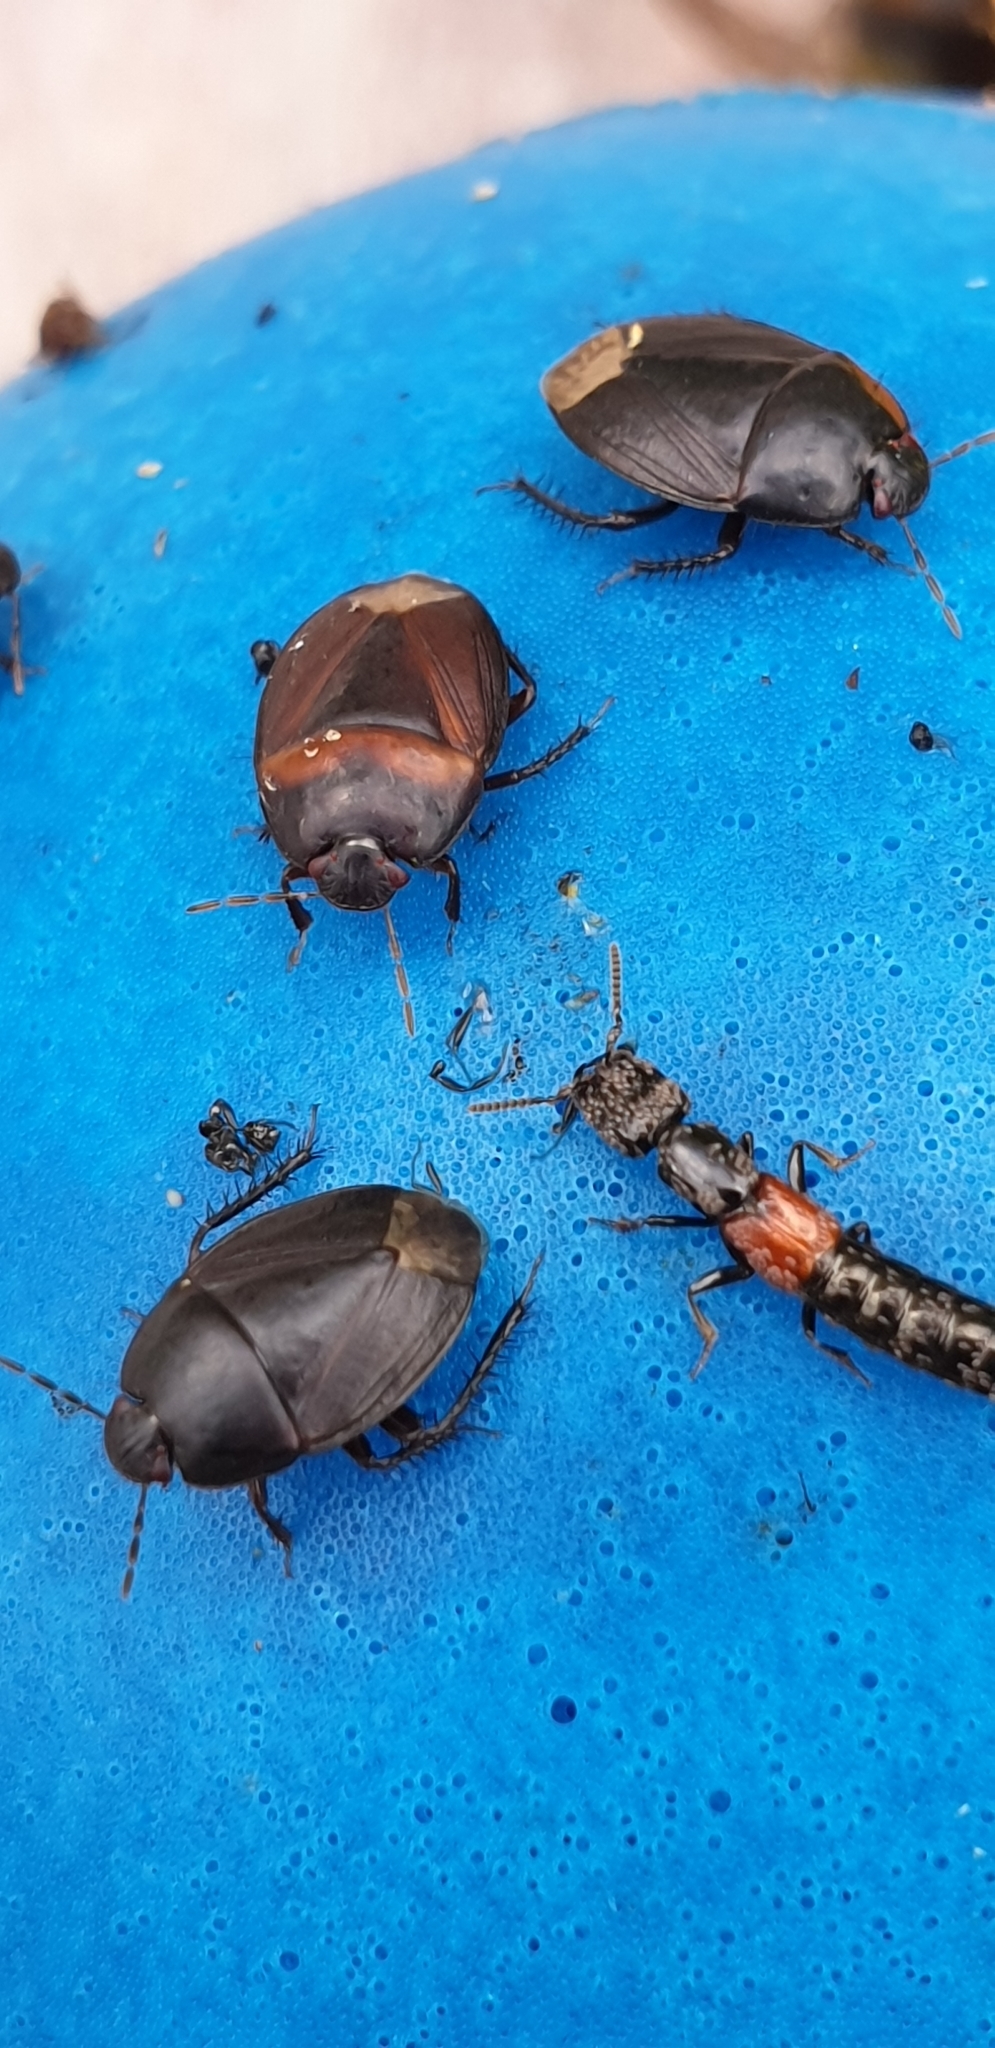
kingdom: Animalia
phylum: Arthropoda
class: Insecta
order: Hemiptera
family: Cydnidae
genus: Macroscytus
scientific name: Macroscytus brunneus
